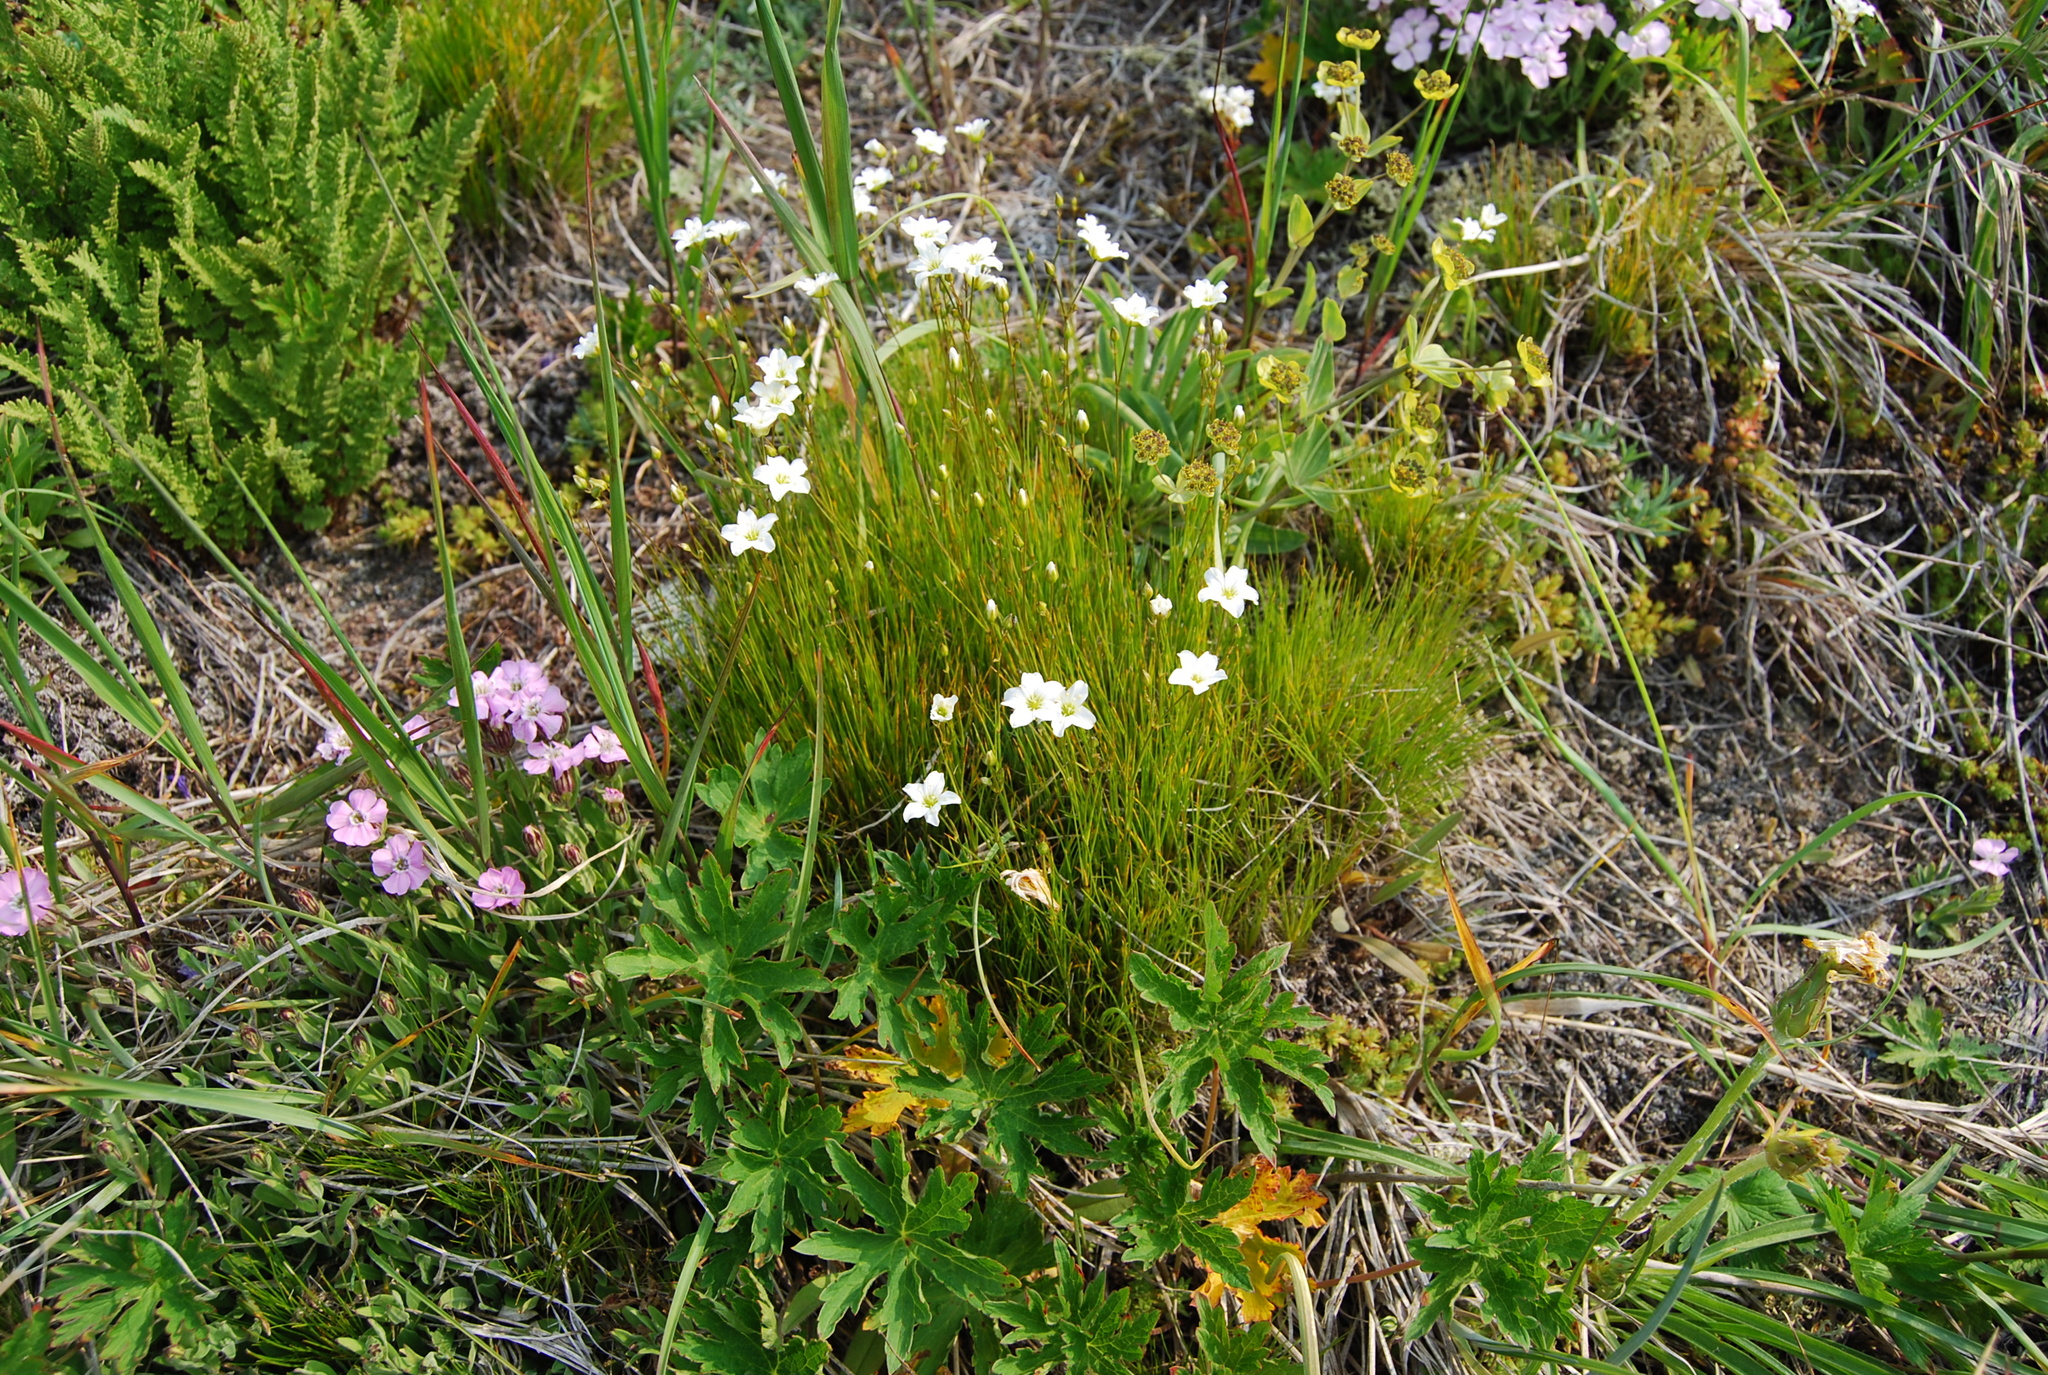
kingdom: Plantae
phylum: Tracheophyta
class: Magnoliopsida
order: Caryophyllales
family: Caryophyllaceae
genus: Eremogone
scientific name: Eremogone capillaris
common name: Slender mountain sandwort
